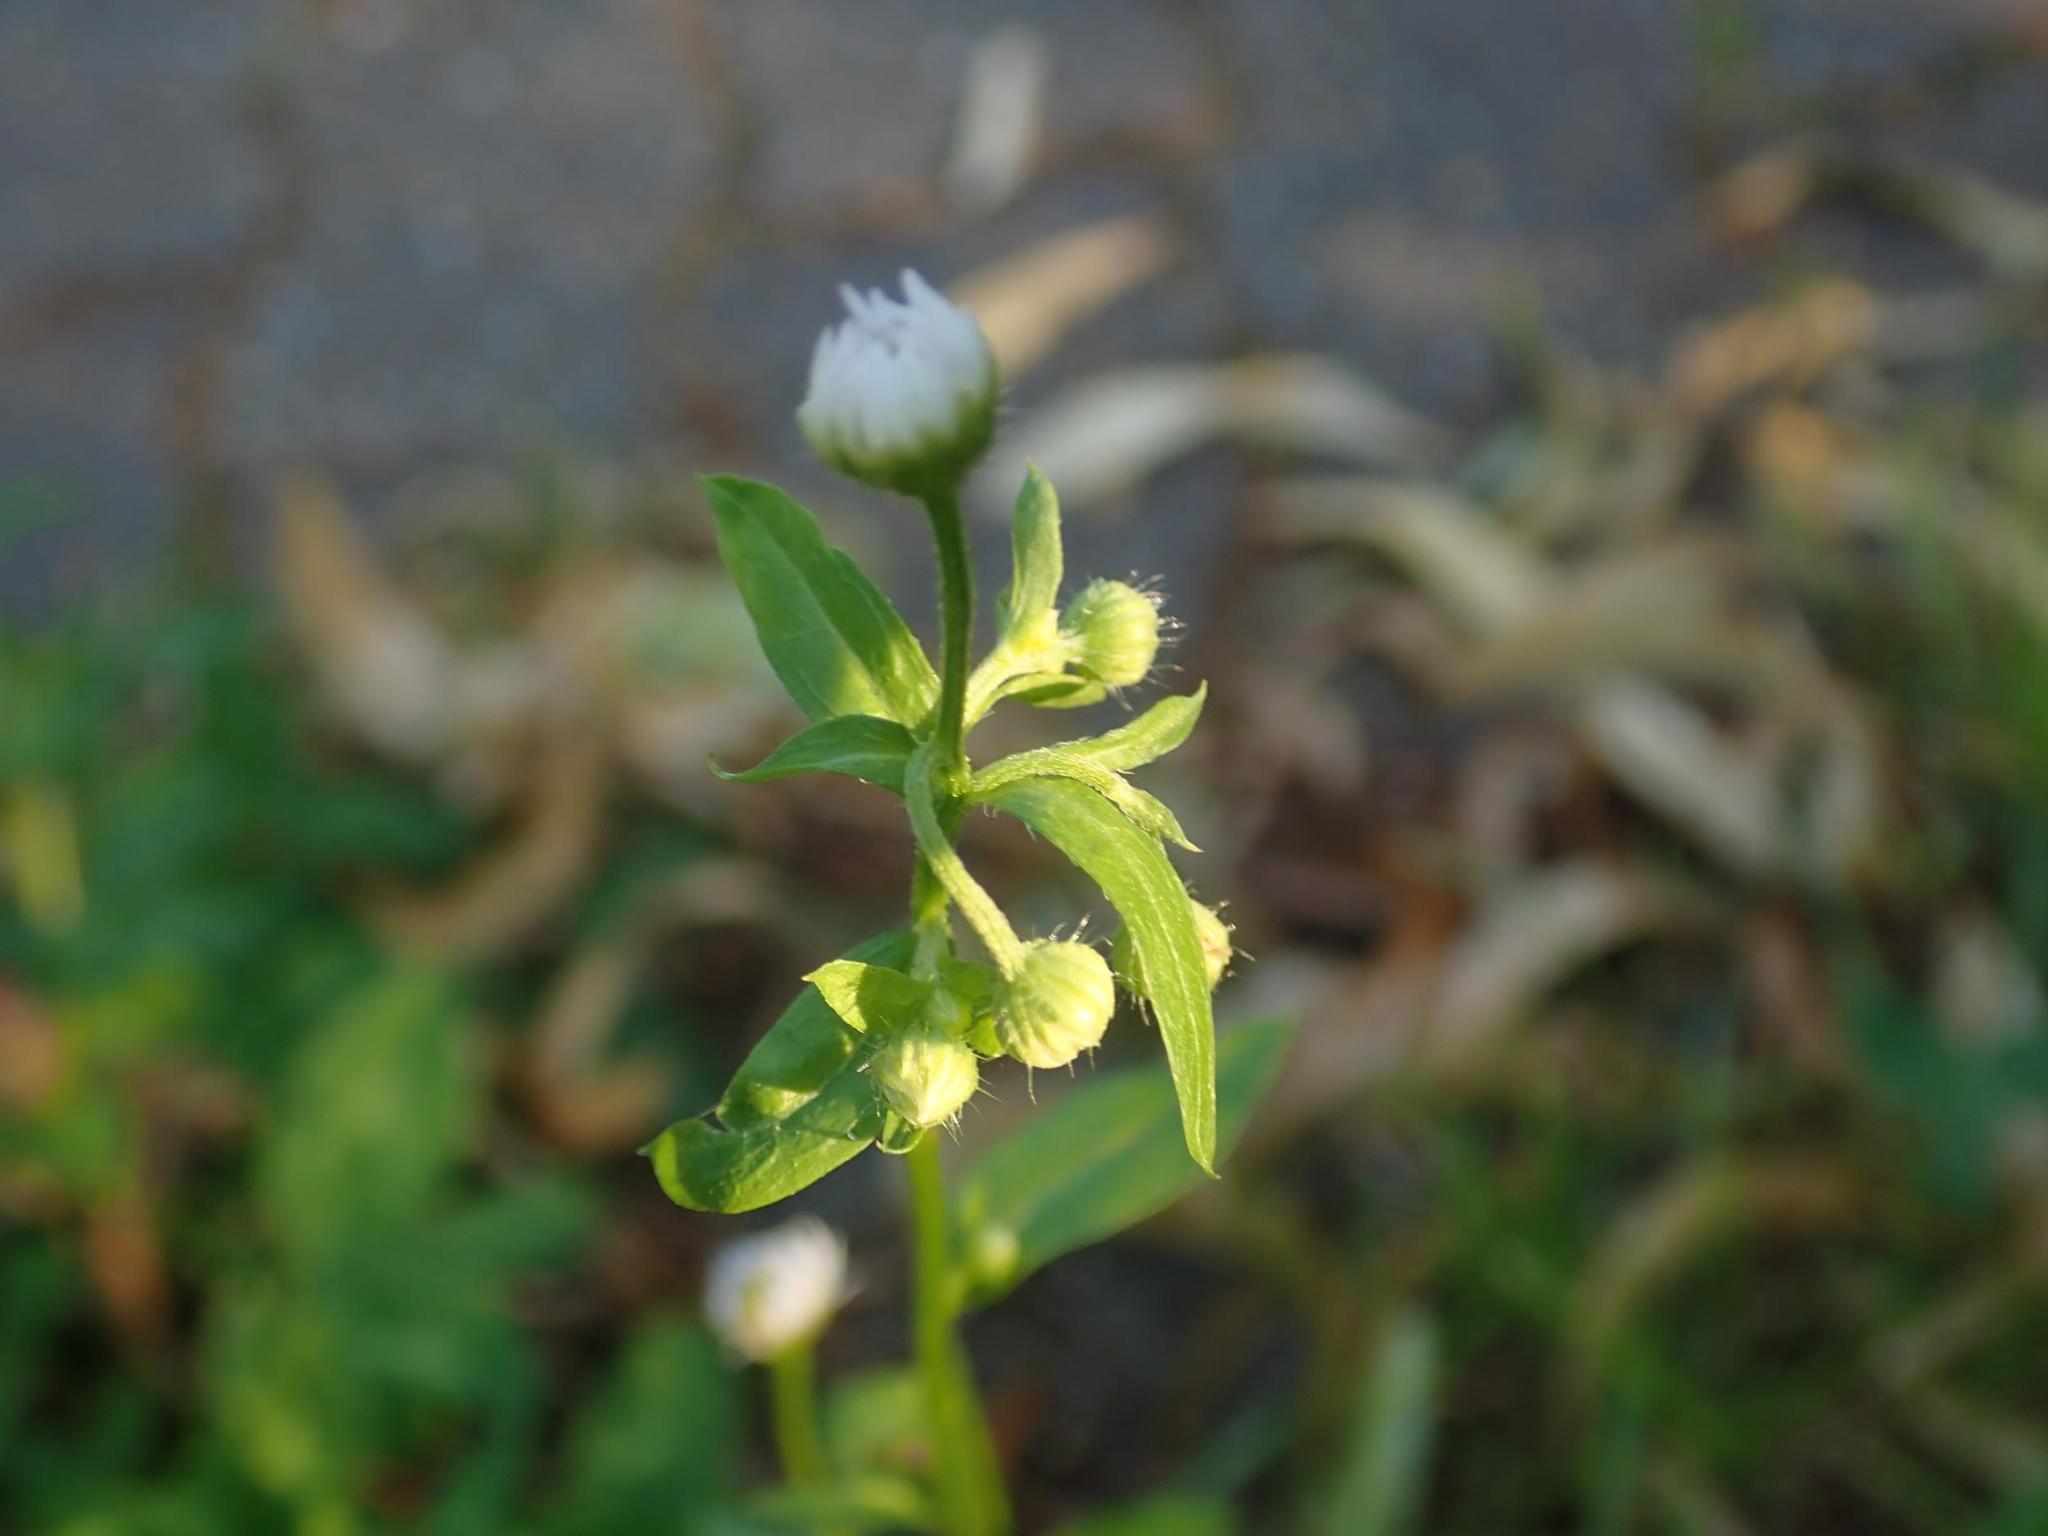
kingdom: Plantae
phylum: Tracheophyta
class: Magnoliopsida
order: Asterales
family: Asteraceae
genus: Erigeron
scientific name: Erigeron annuus
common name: Tall fleabane
